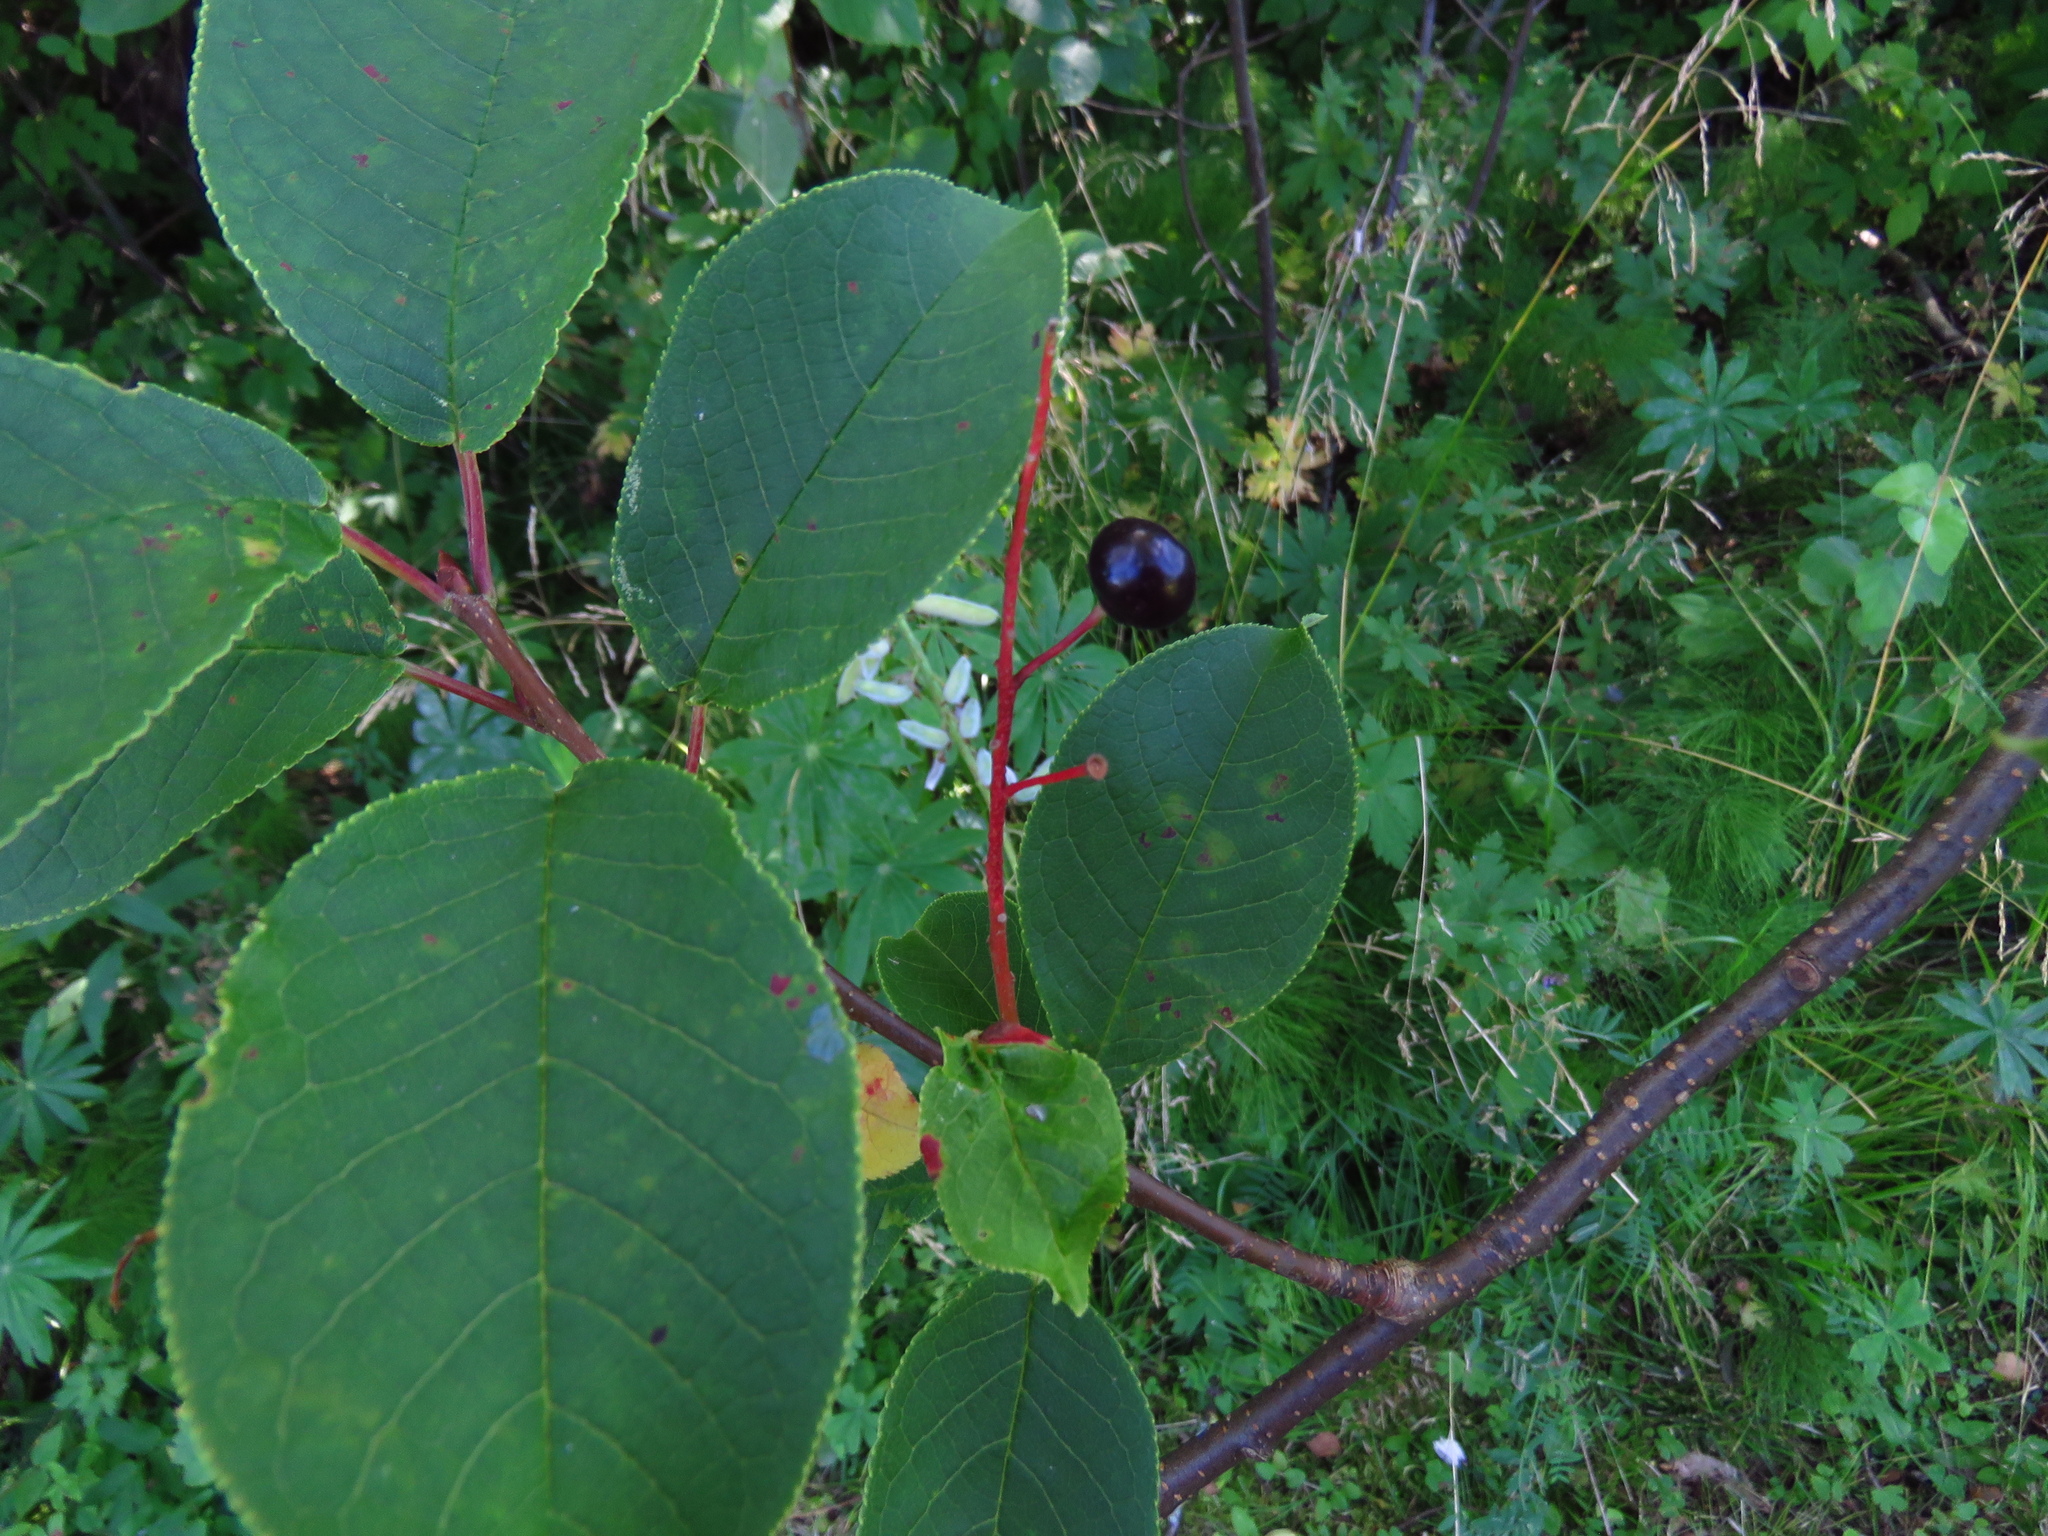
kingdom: Plantae
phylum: Tracheophyta
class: Magnoliopsida
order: Rosales
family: Rosaceae
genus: Prunus
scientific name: Prunus padus
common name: Bird cherry
